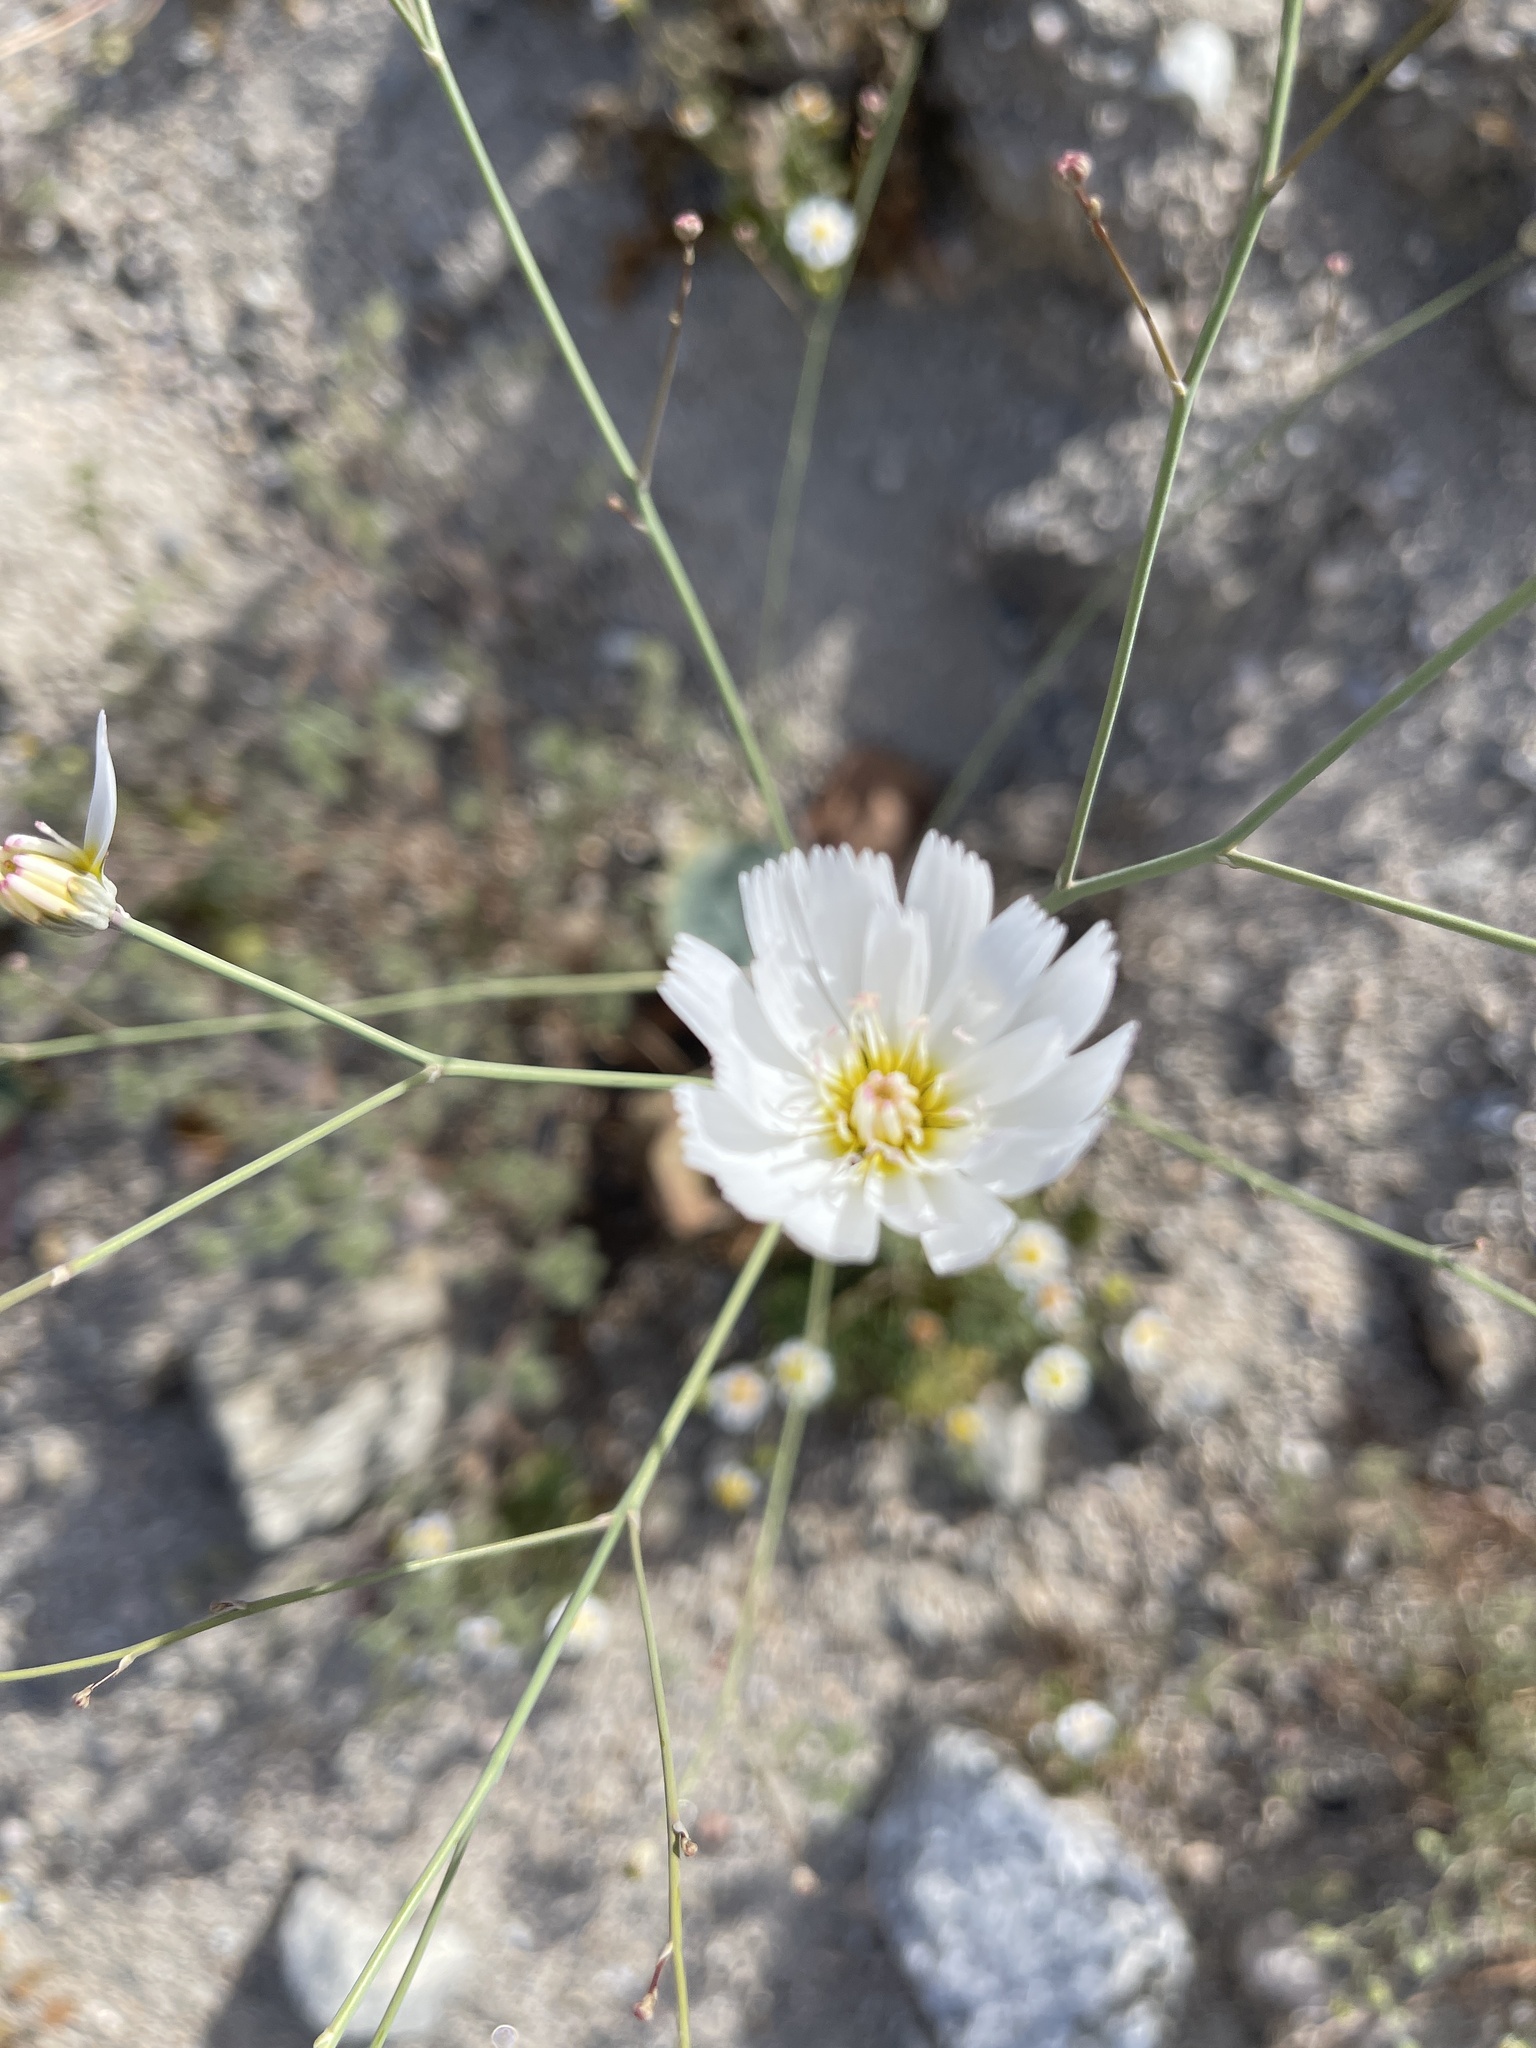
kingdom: Plantae
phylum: Tracheophyta
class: Magnoliopsida
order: Asterales
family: Asteraceae
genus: Atrichoseris
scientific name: Atrichoseris platyphylla
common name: Tobaccoweed
